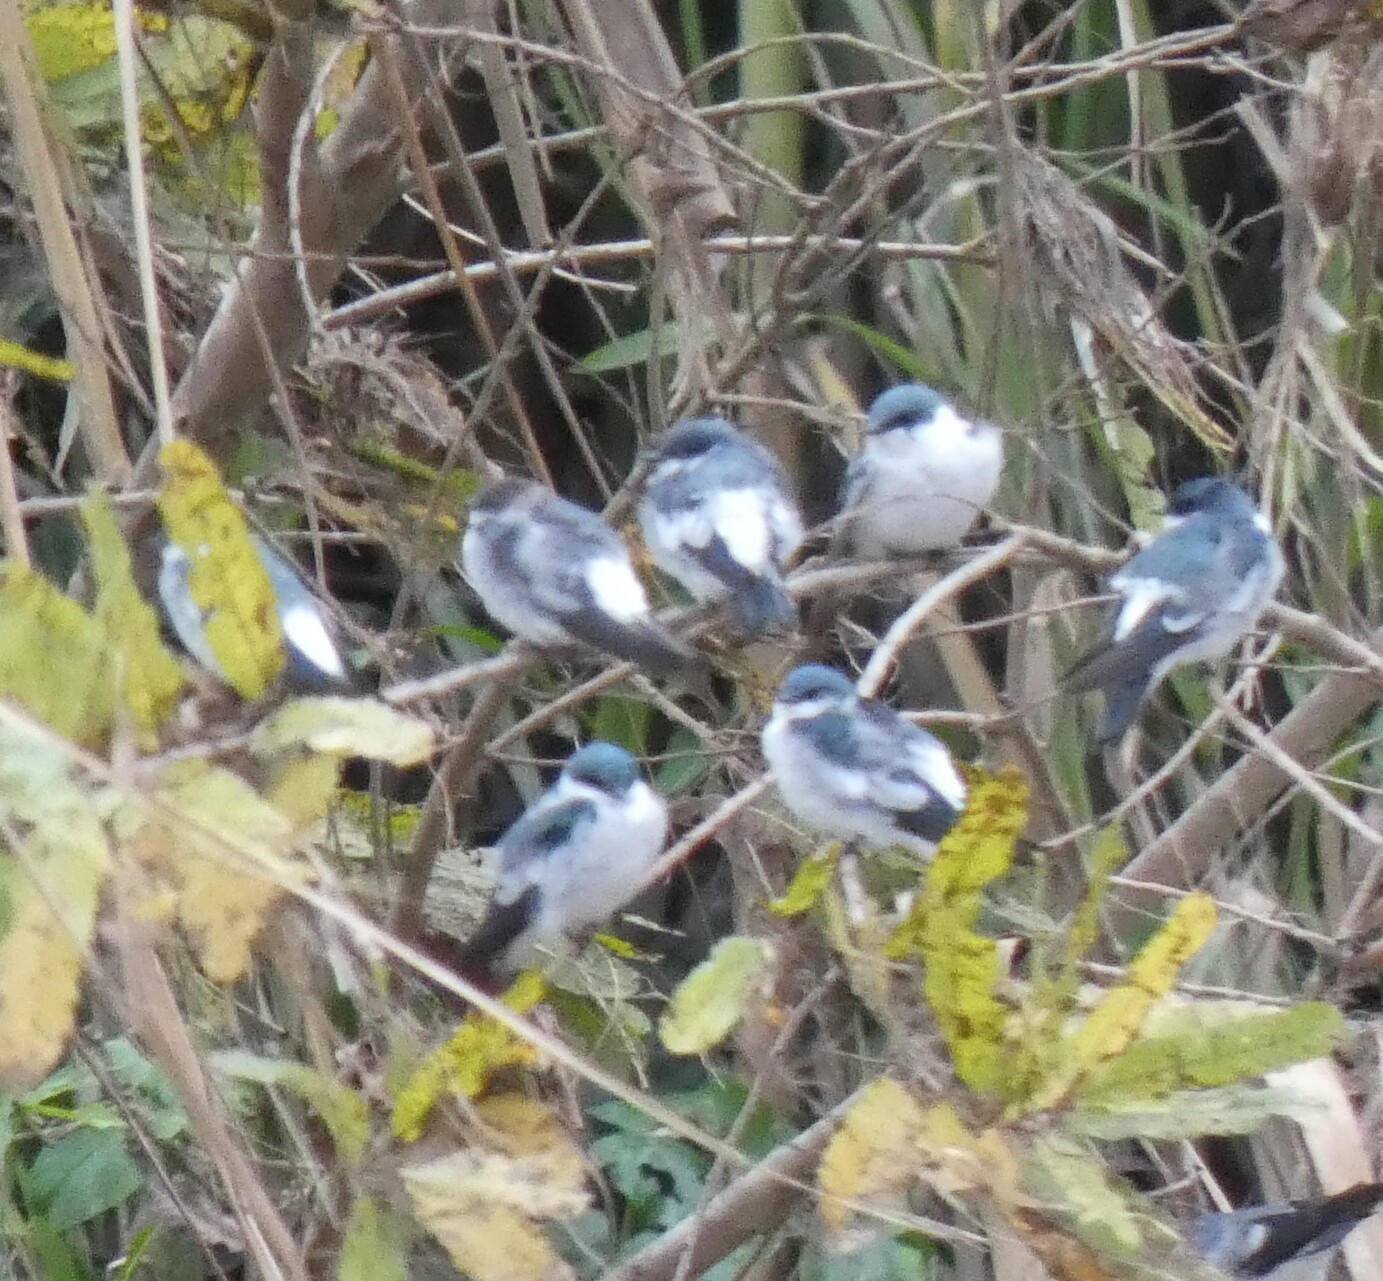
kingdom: Animalia
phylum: Chordata
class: Aves
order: Passeriformes
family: Hirundinidae
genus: Tachycineta
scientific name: Tachycineta albiventer
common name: White-winged swallow
